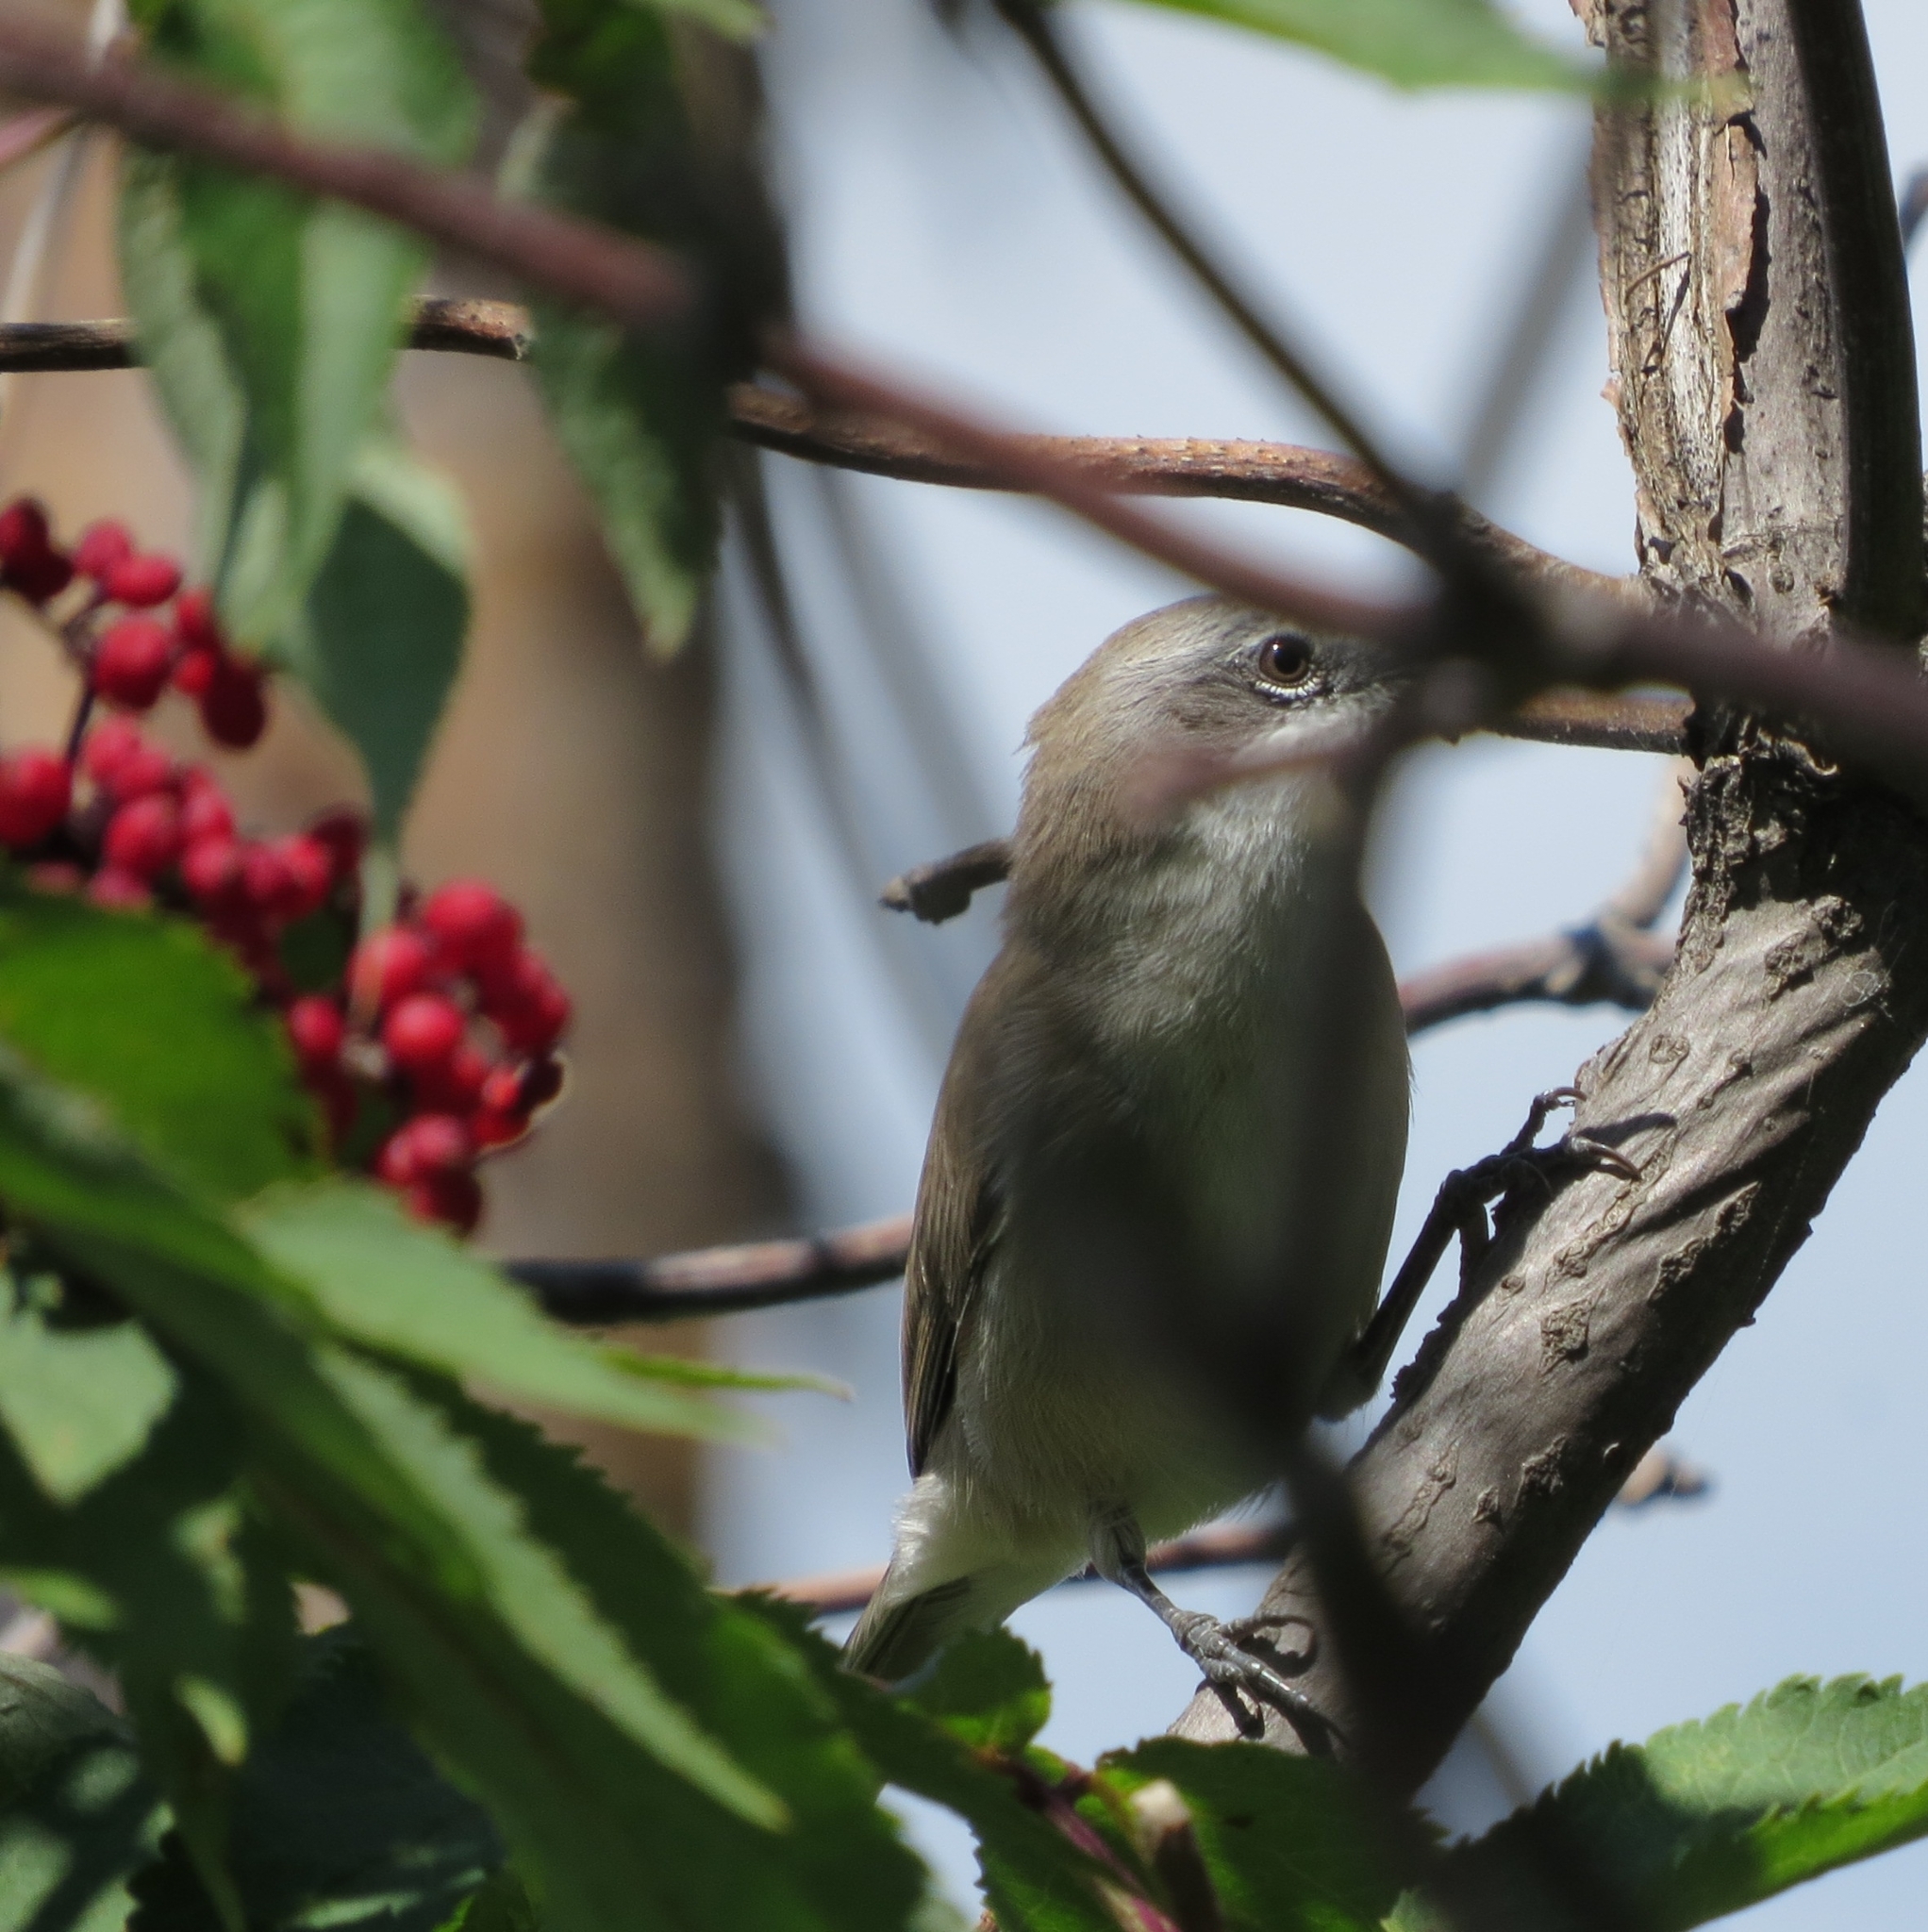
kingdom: Animalia
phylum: Chordata
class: Aves
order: Passeriformes
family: Sylviidae
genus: Sylvia
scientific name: Sylvia curruca
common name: Lesser whitethroat
